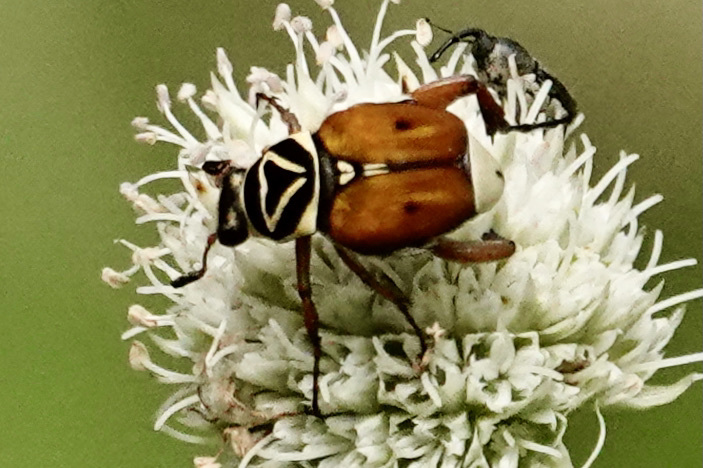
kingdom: Animalia
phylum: Arthropoda
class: Insecta
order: Coleoptera
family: Scarabaeidae
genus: Trigonopeltastes
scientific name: Trigonopeltastes delta
